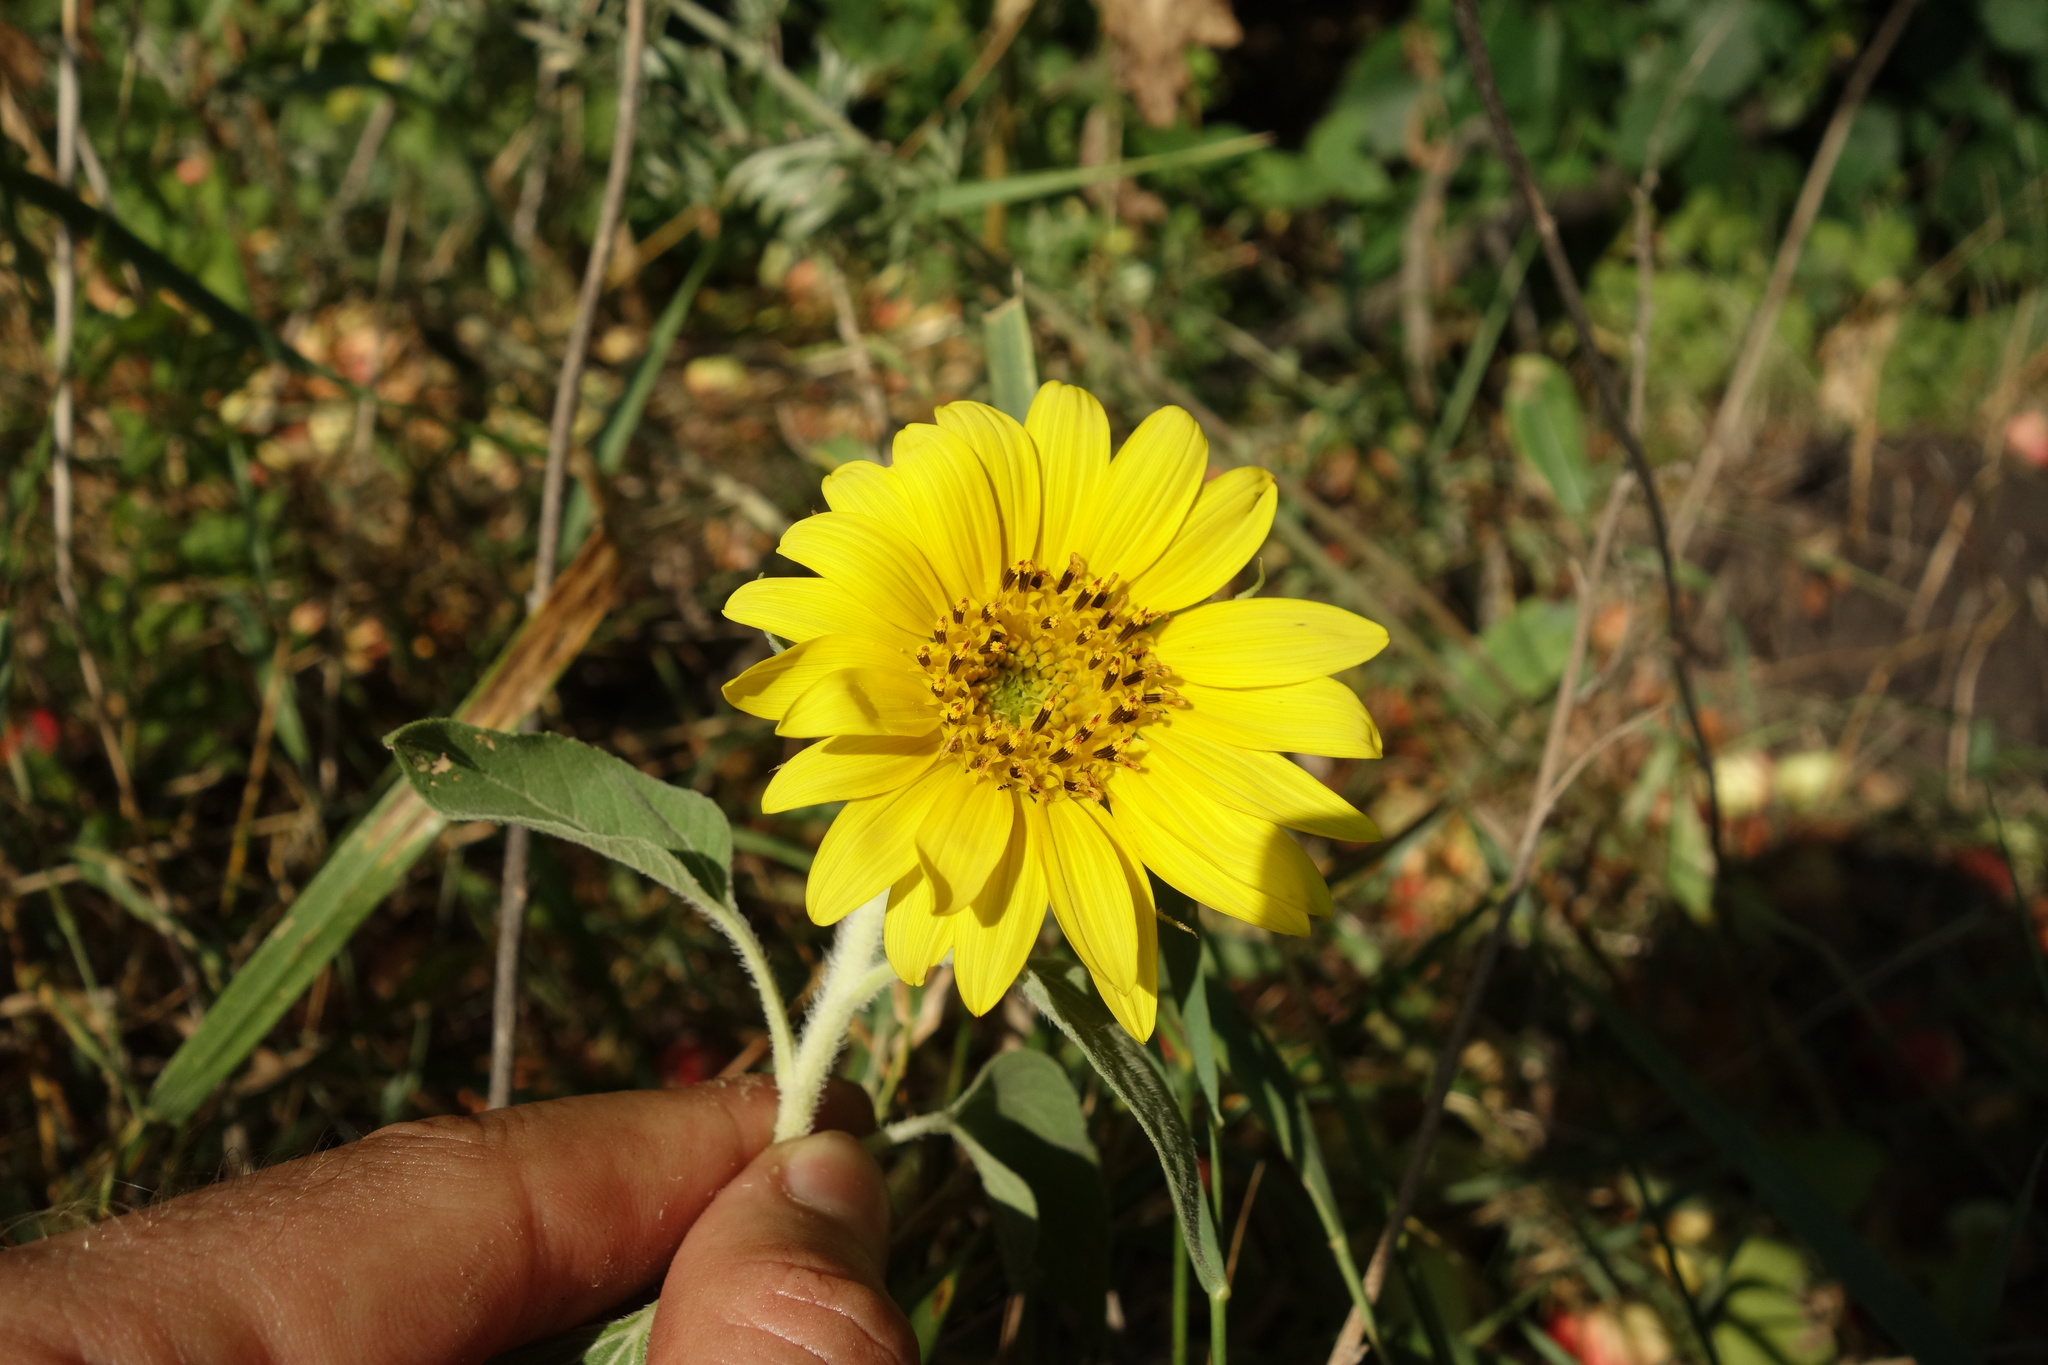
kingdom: Plantae
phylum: Tracheophyta
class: Magnoliopsida
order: Asterales
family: Asteraceae
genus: Helianthus
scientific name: Helianthus annuus
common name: Sunflower
